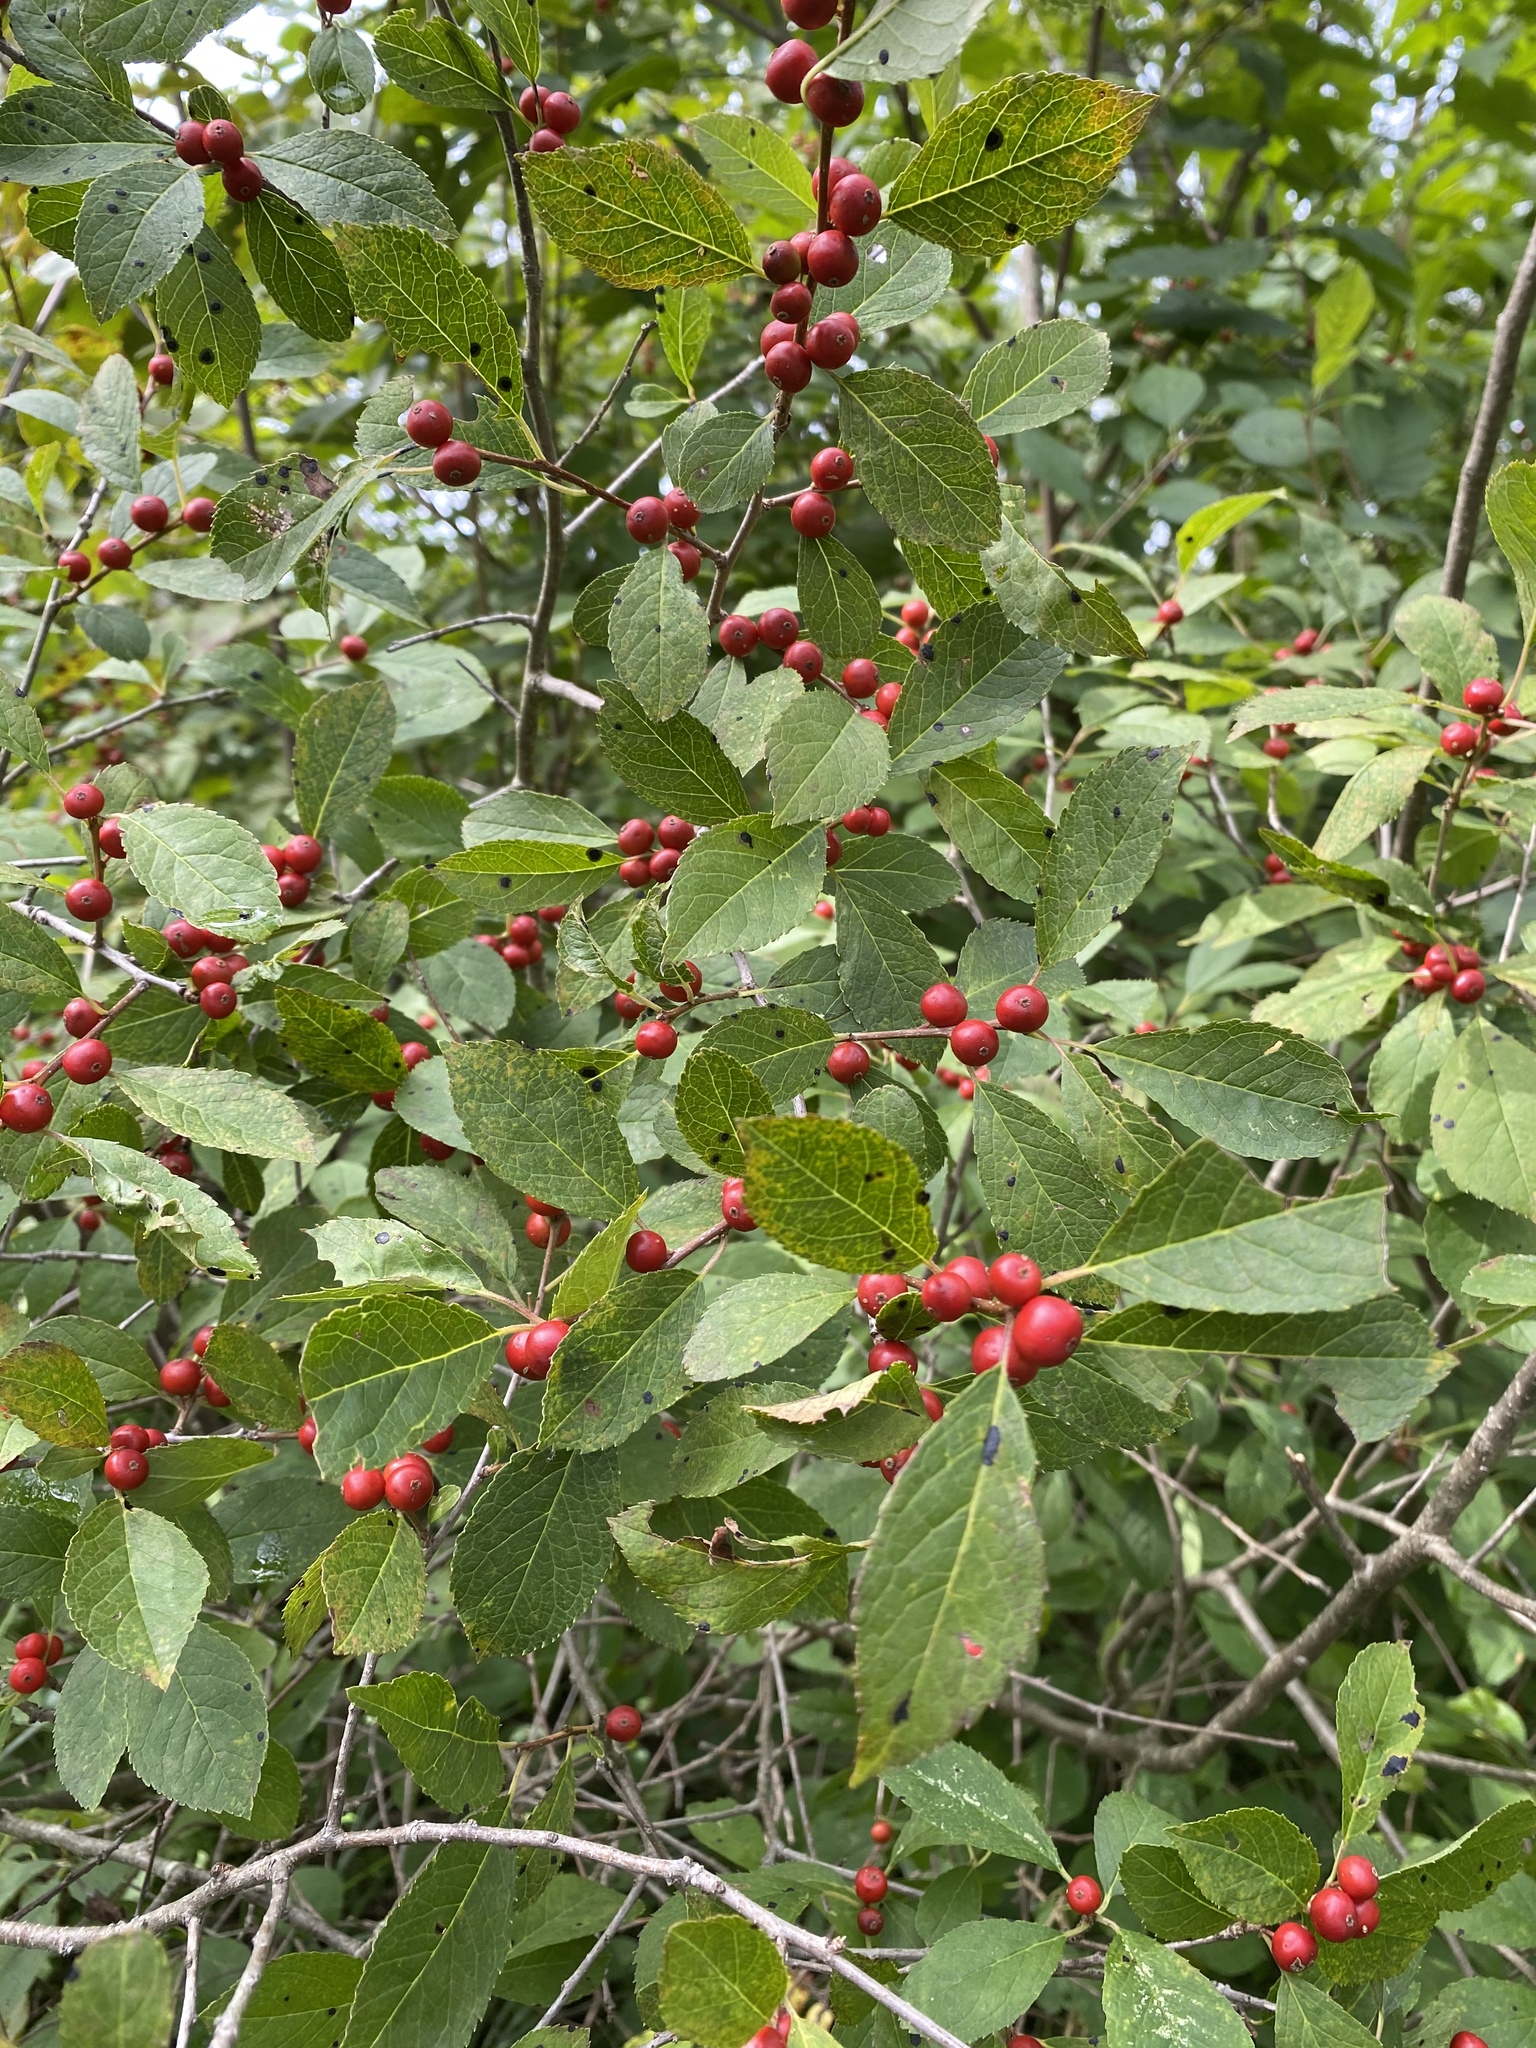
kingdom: Plantae
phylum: Tracheophyta
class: Magnoliopsida
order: Aquifoliales
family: Aquifoliaceae
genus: Ilex
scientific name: Ilex verticillata
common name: Virginia winterberry
